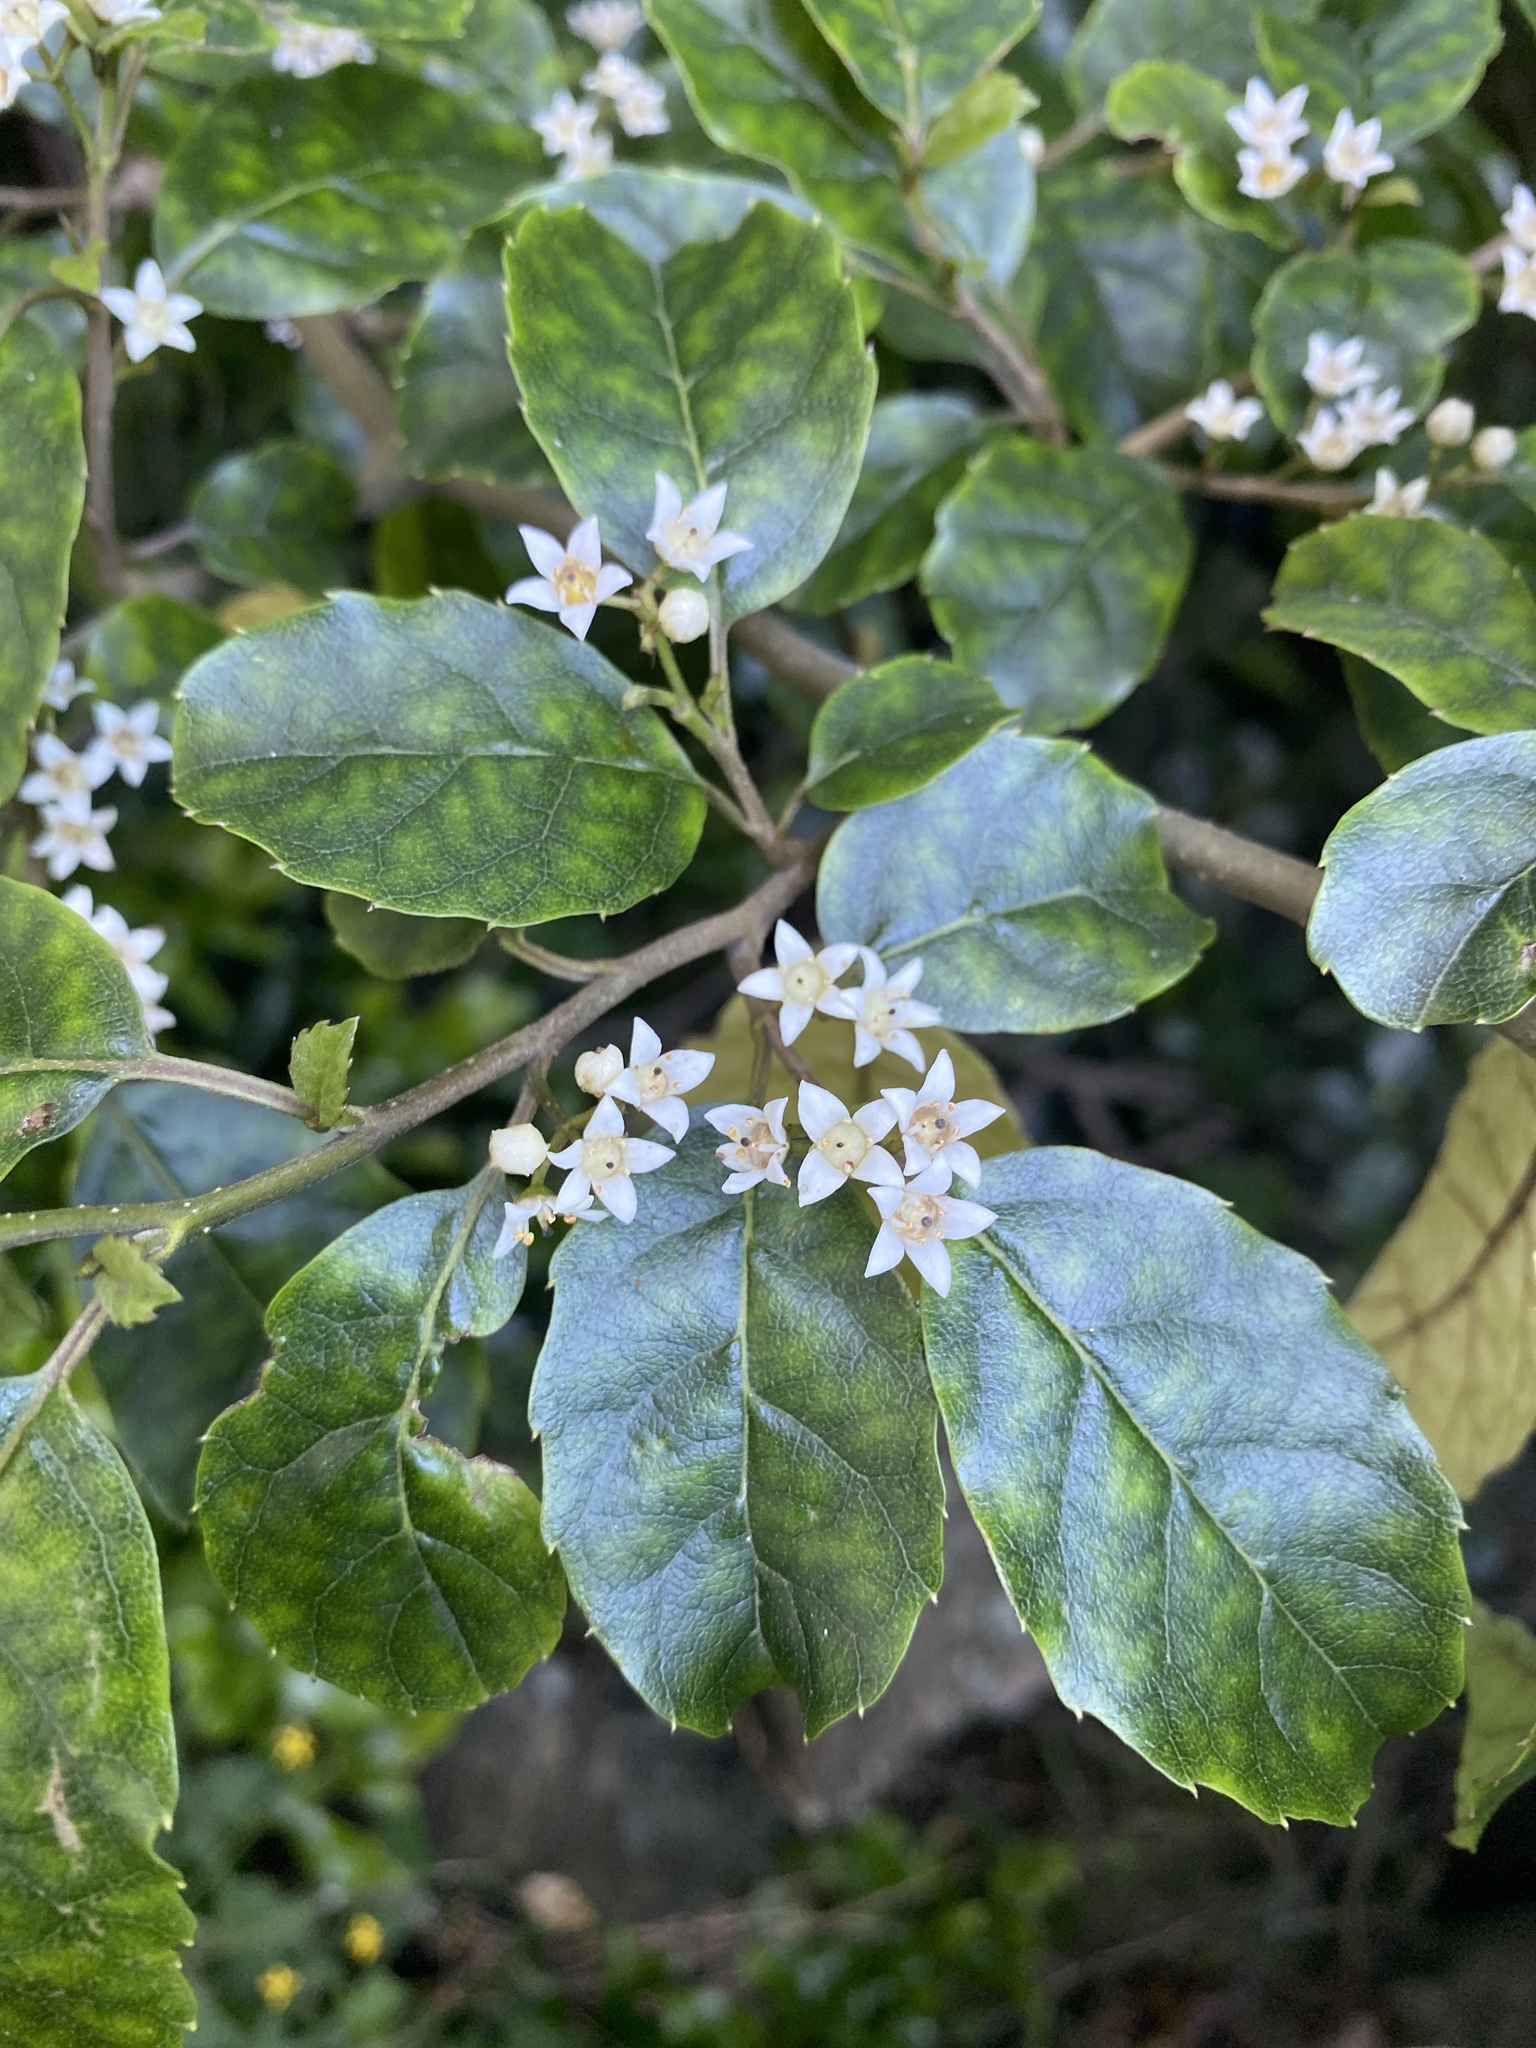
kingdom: Plantae
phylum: Tracheophyta
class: Magnoliopsida
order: Asterales
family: Rousseaceae
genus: Carpodetus
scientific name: Carpodetus serratus
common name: White mapau
